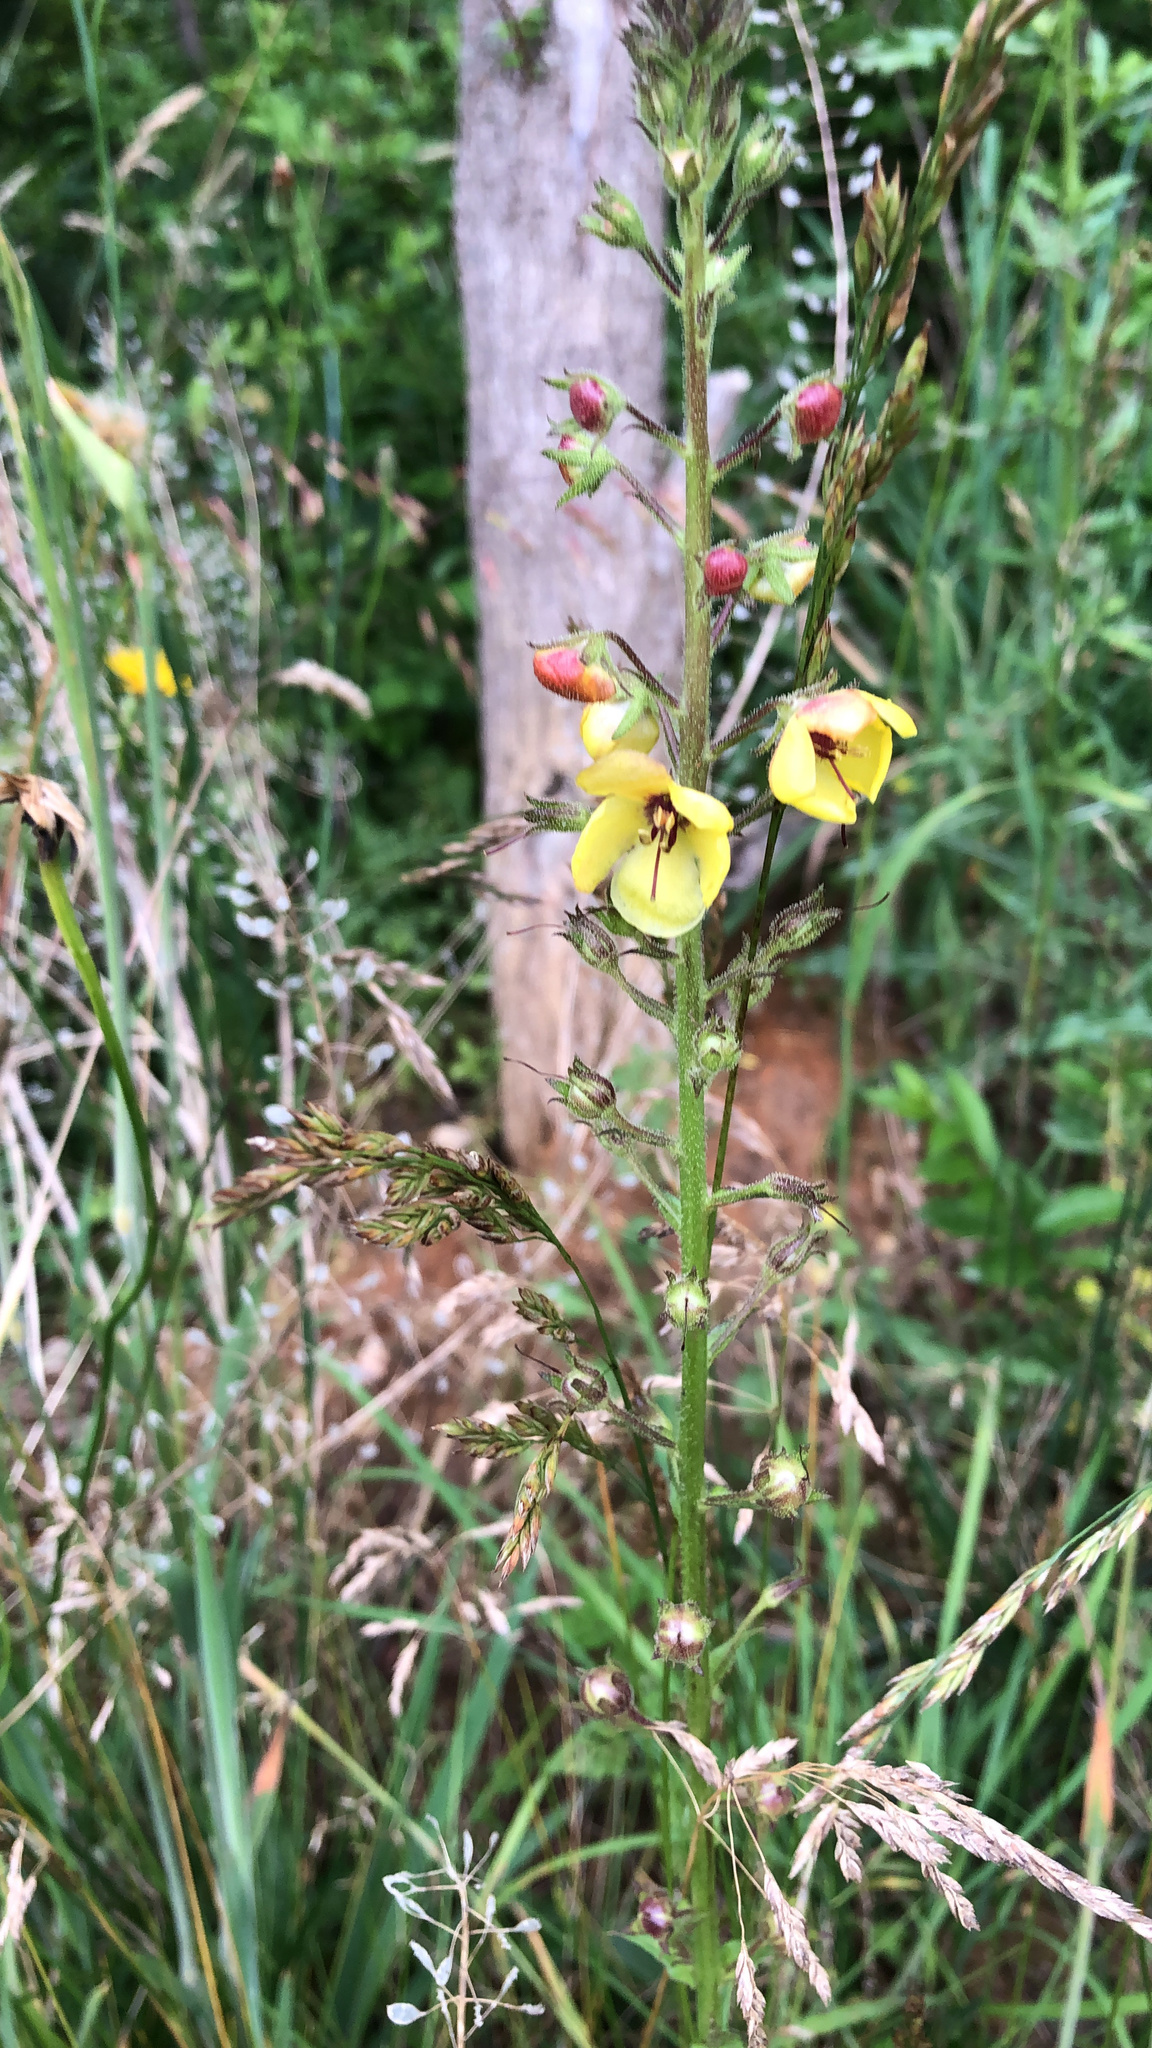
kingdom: Plantae
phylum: Tracheophyta
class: Magnoliopsida
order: Lamiales
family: Scrophulariaceae
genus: Verbascum
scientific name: Verbascum blattaria
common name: Moth mullein
